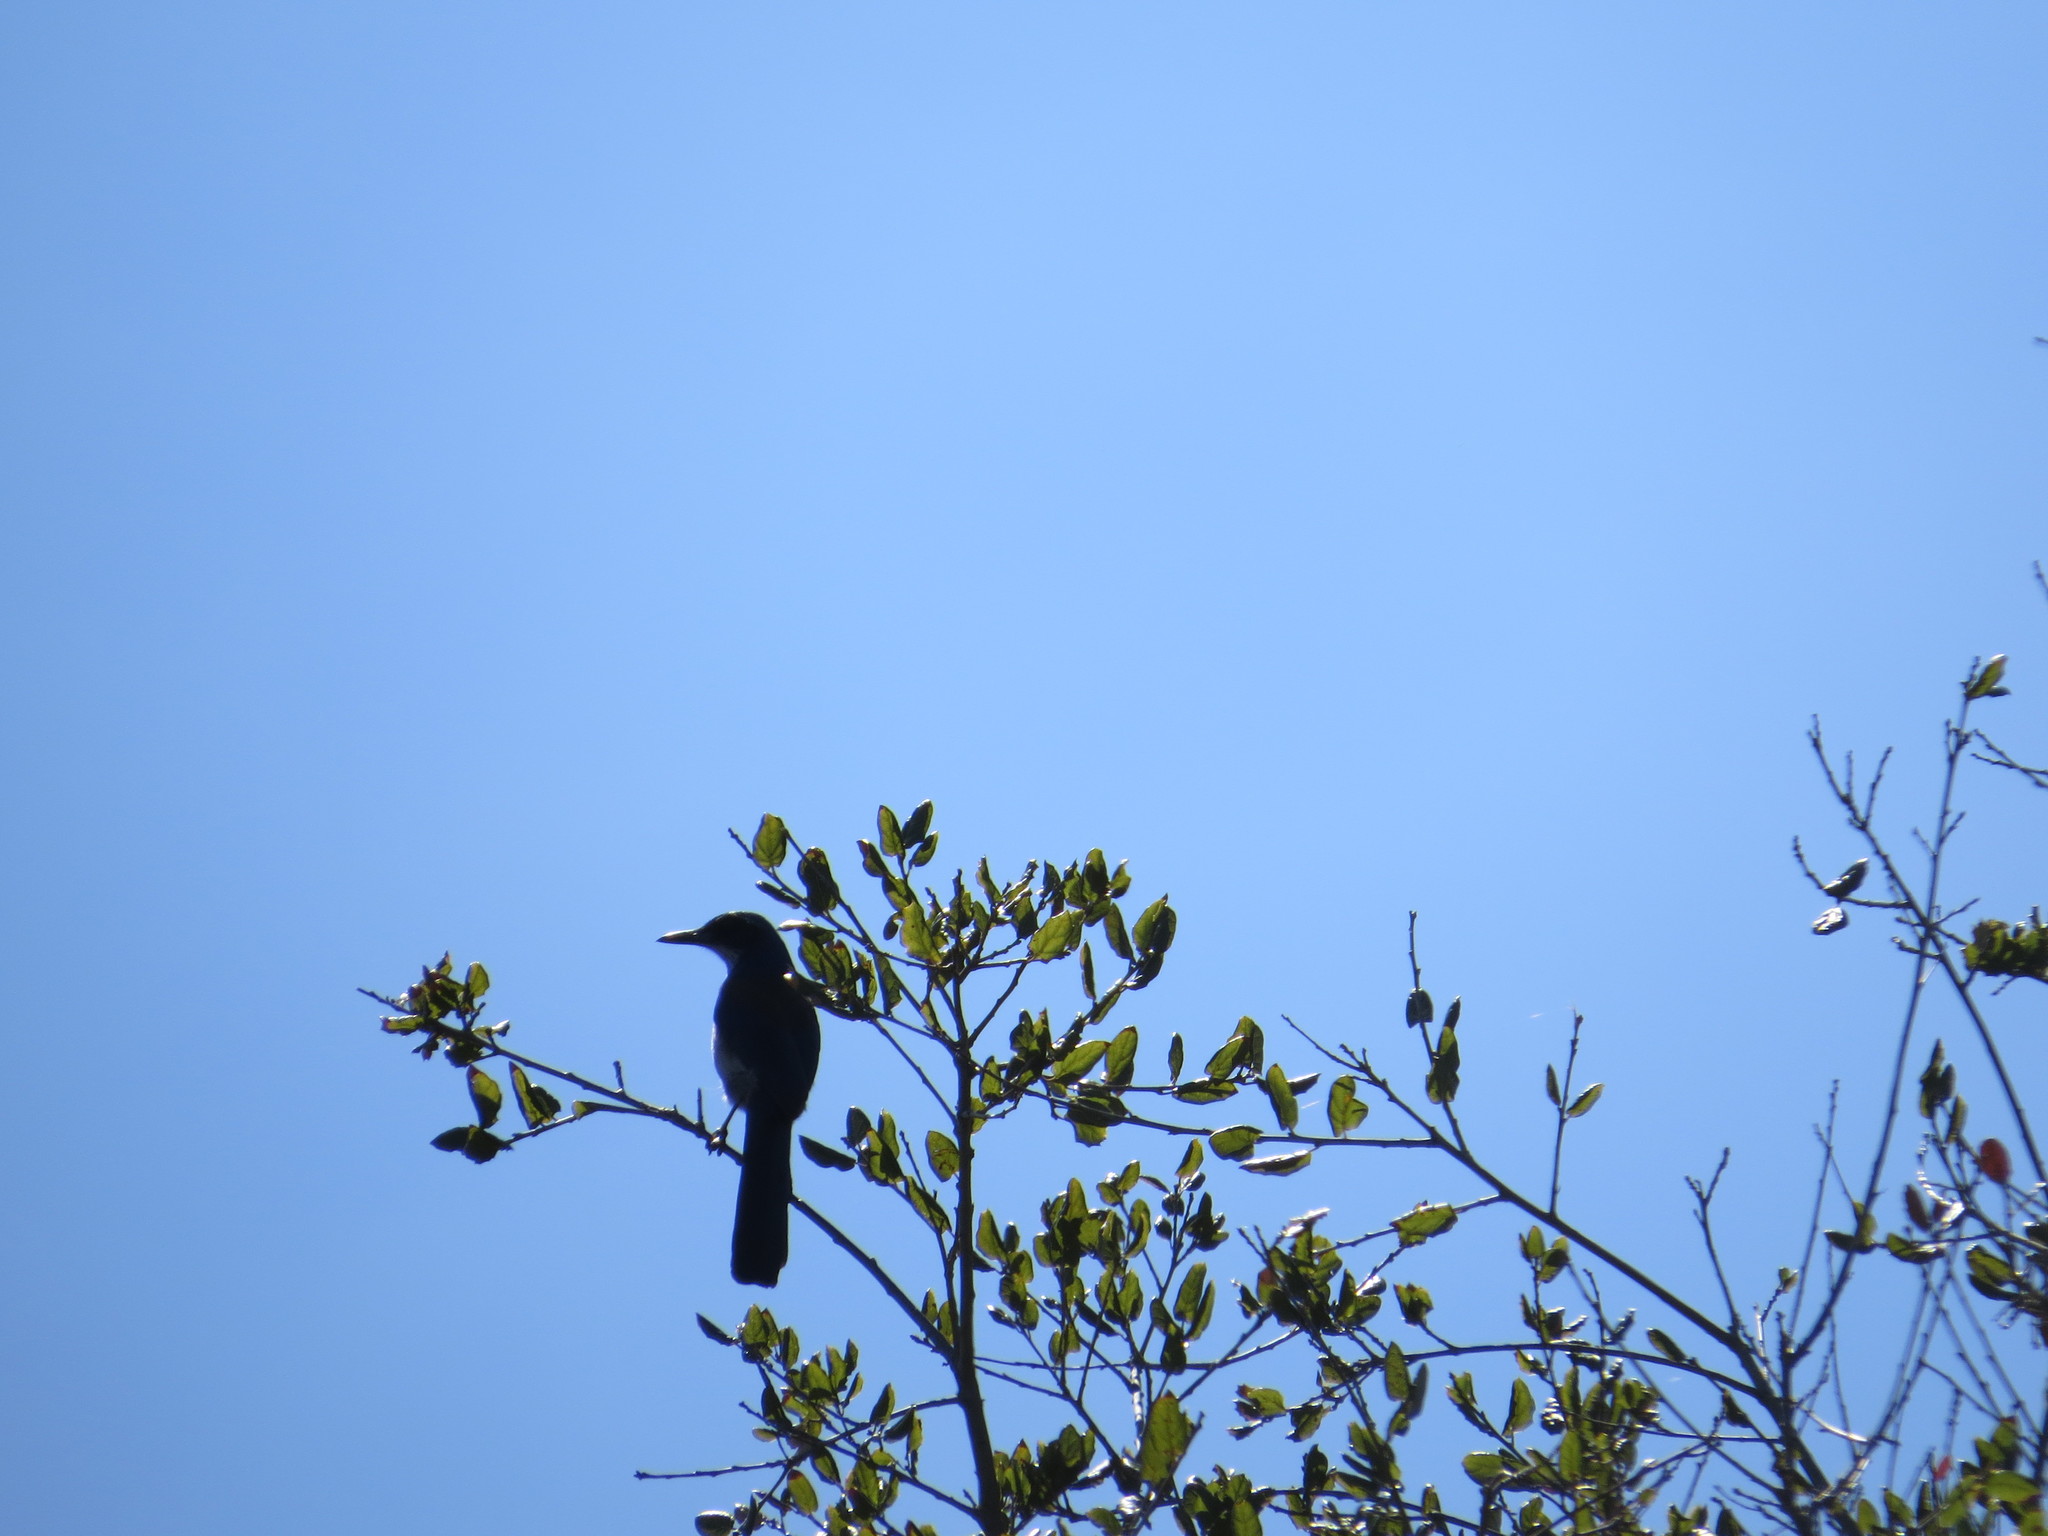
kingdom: Animalia
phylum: Chordata
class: Aves
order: Passeriformes
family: Corvidae
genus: Aphelocoma
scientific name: Aphelocoma insularis
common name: Island scrub-jay
